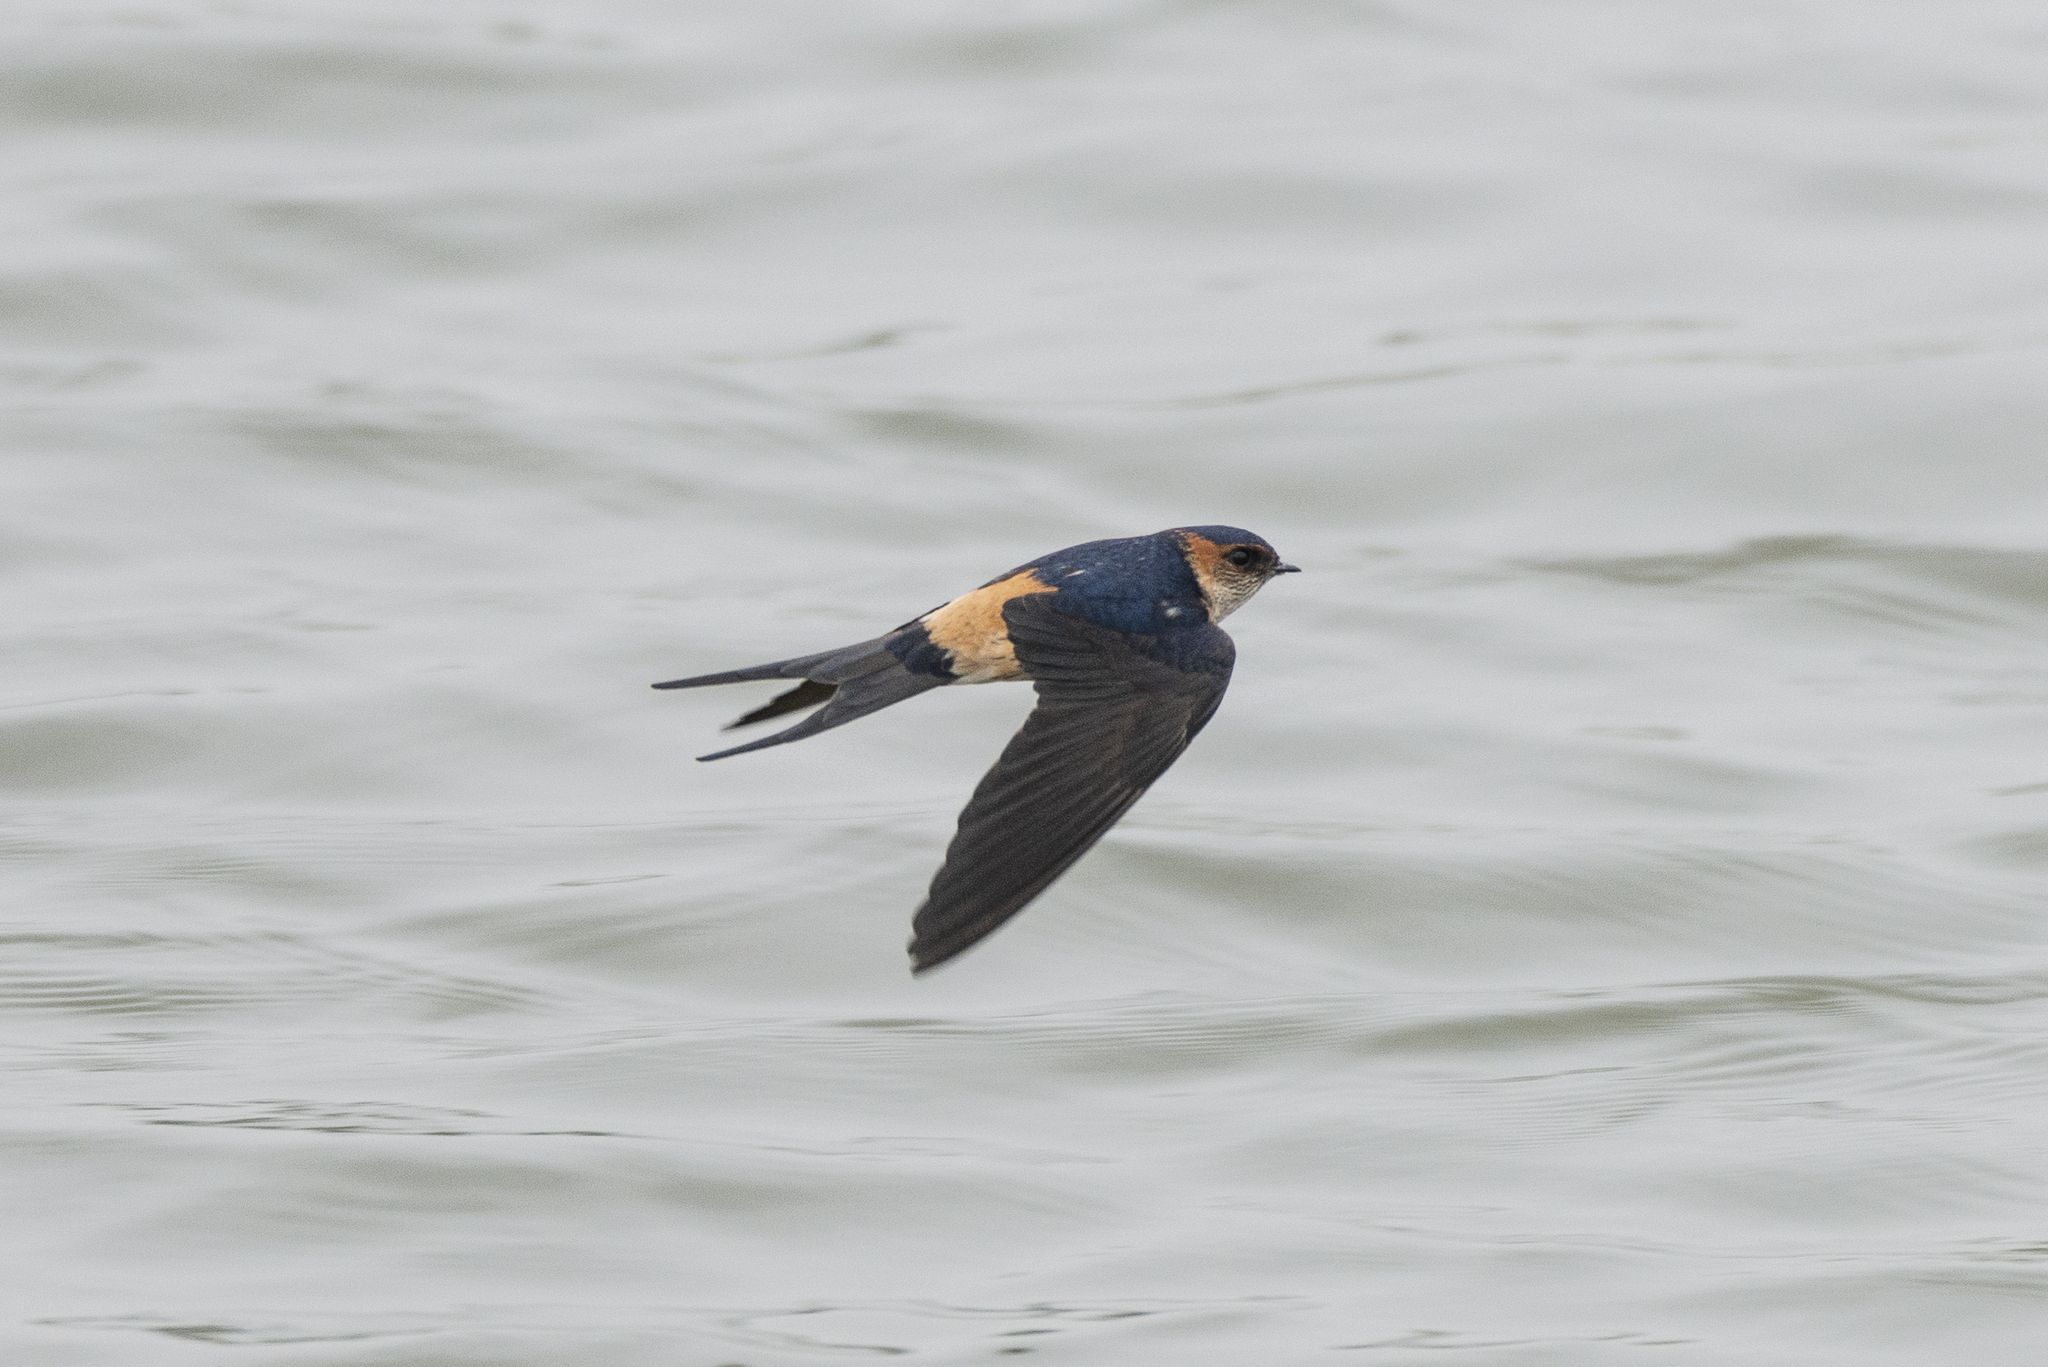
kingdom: Animalia
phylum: Chordata
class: Aves
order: Passeriformes
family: Hirundinidae
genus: Cecropis
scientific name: Cecropis daurica
